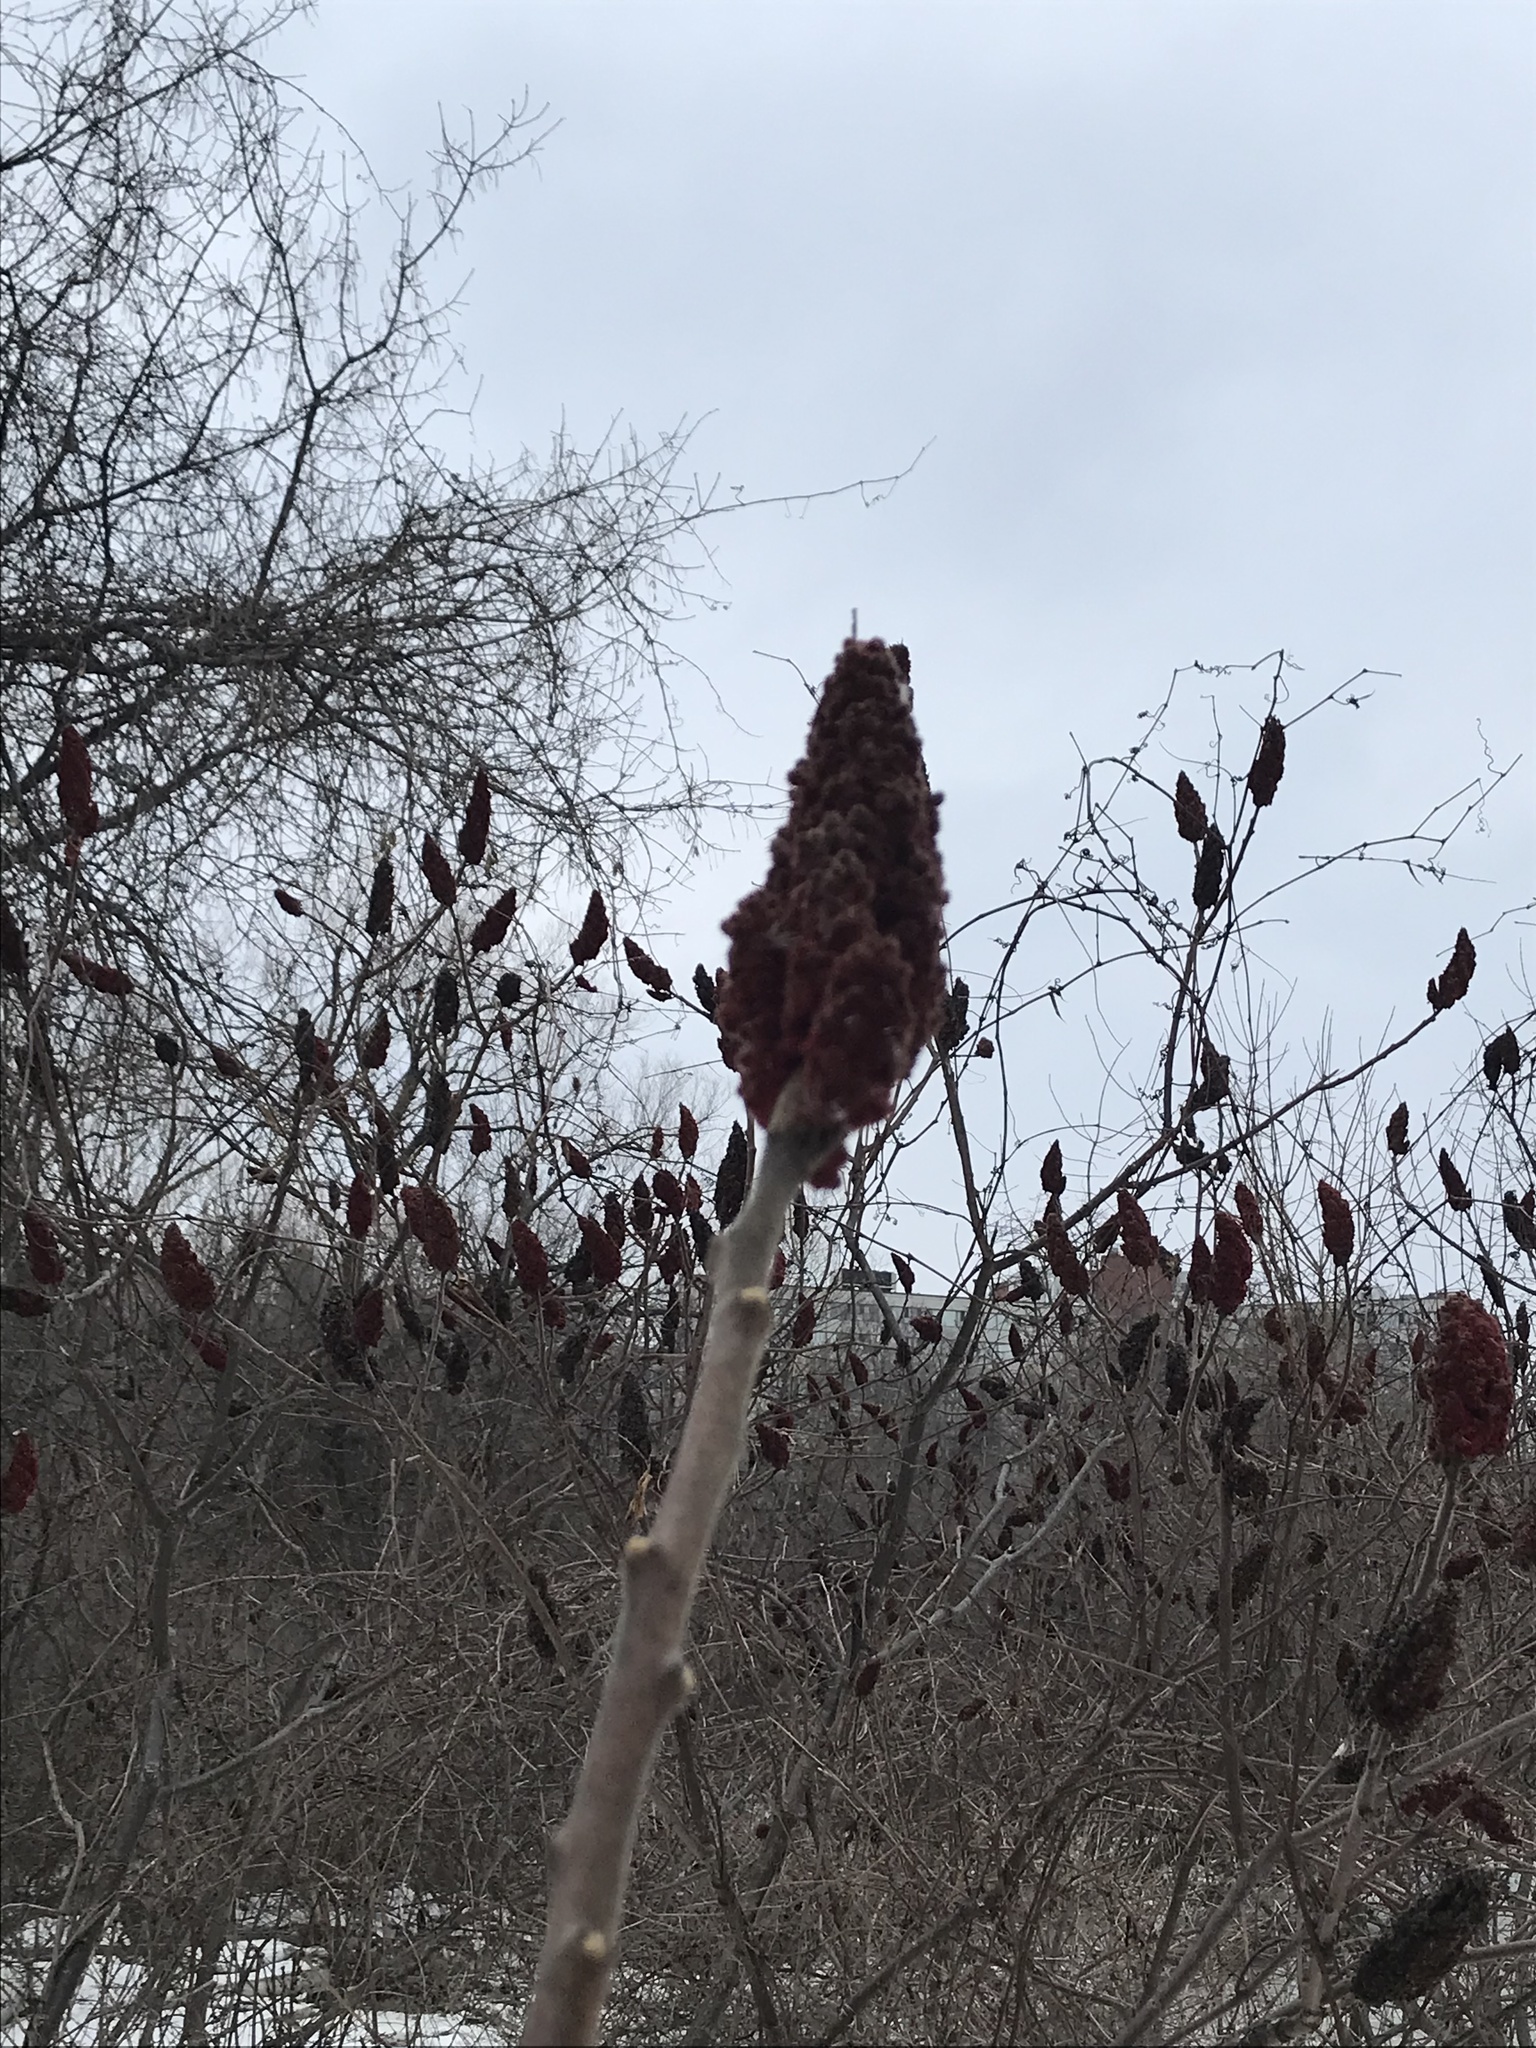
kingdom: Plantae
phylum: Tracheophyta
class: Magnoliopsida
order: Sapindales
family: Anacardiaceae
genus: Rhus
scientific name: Rhus typhina
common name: Staghorn sumac
